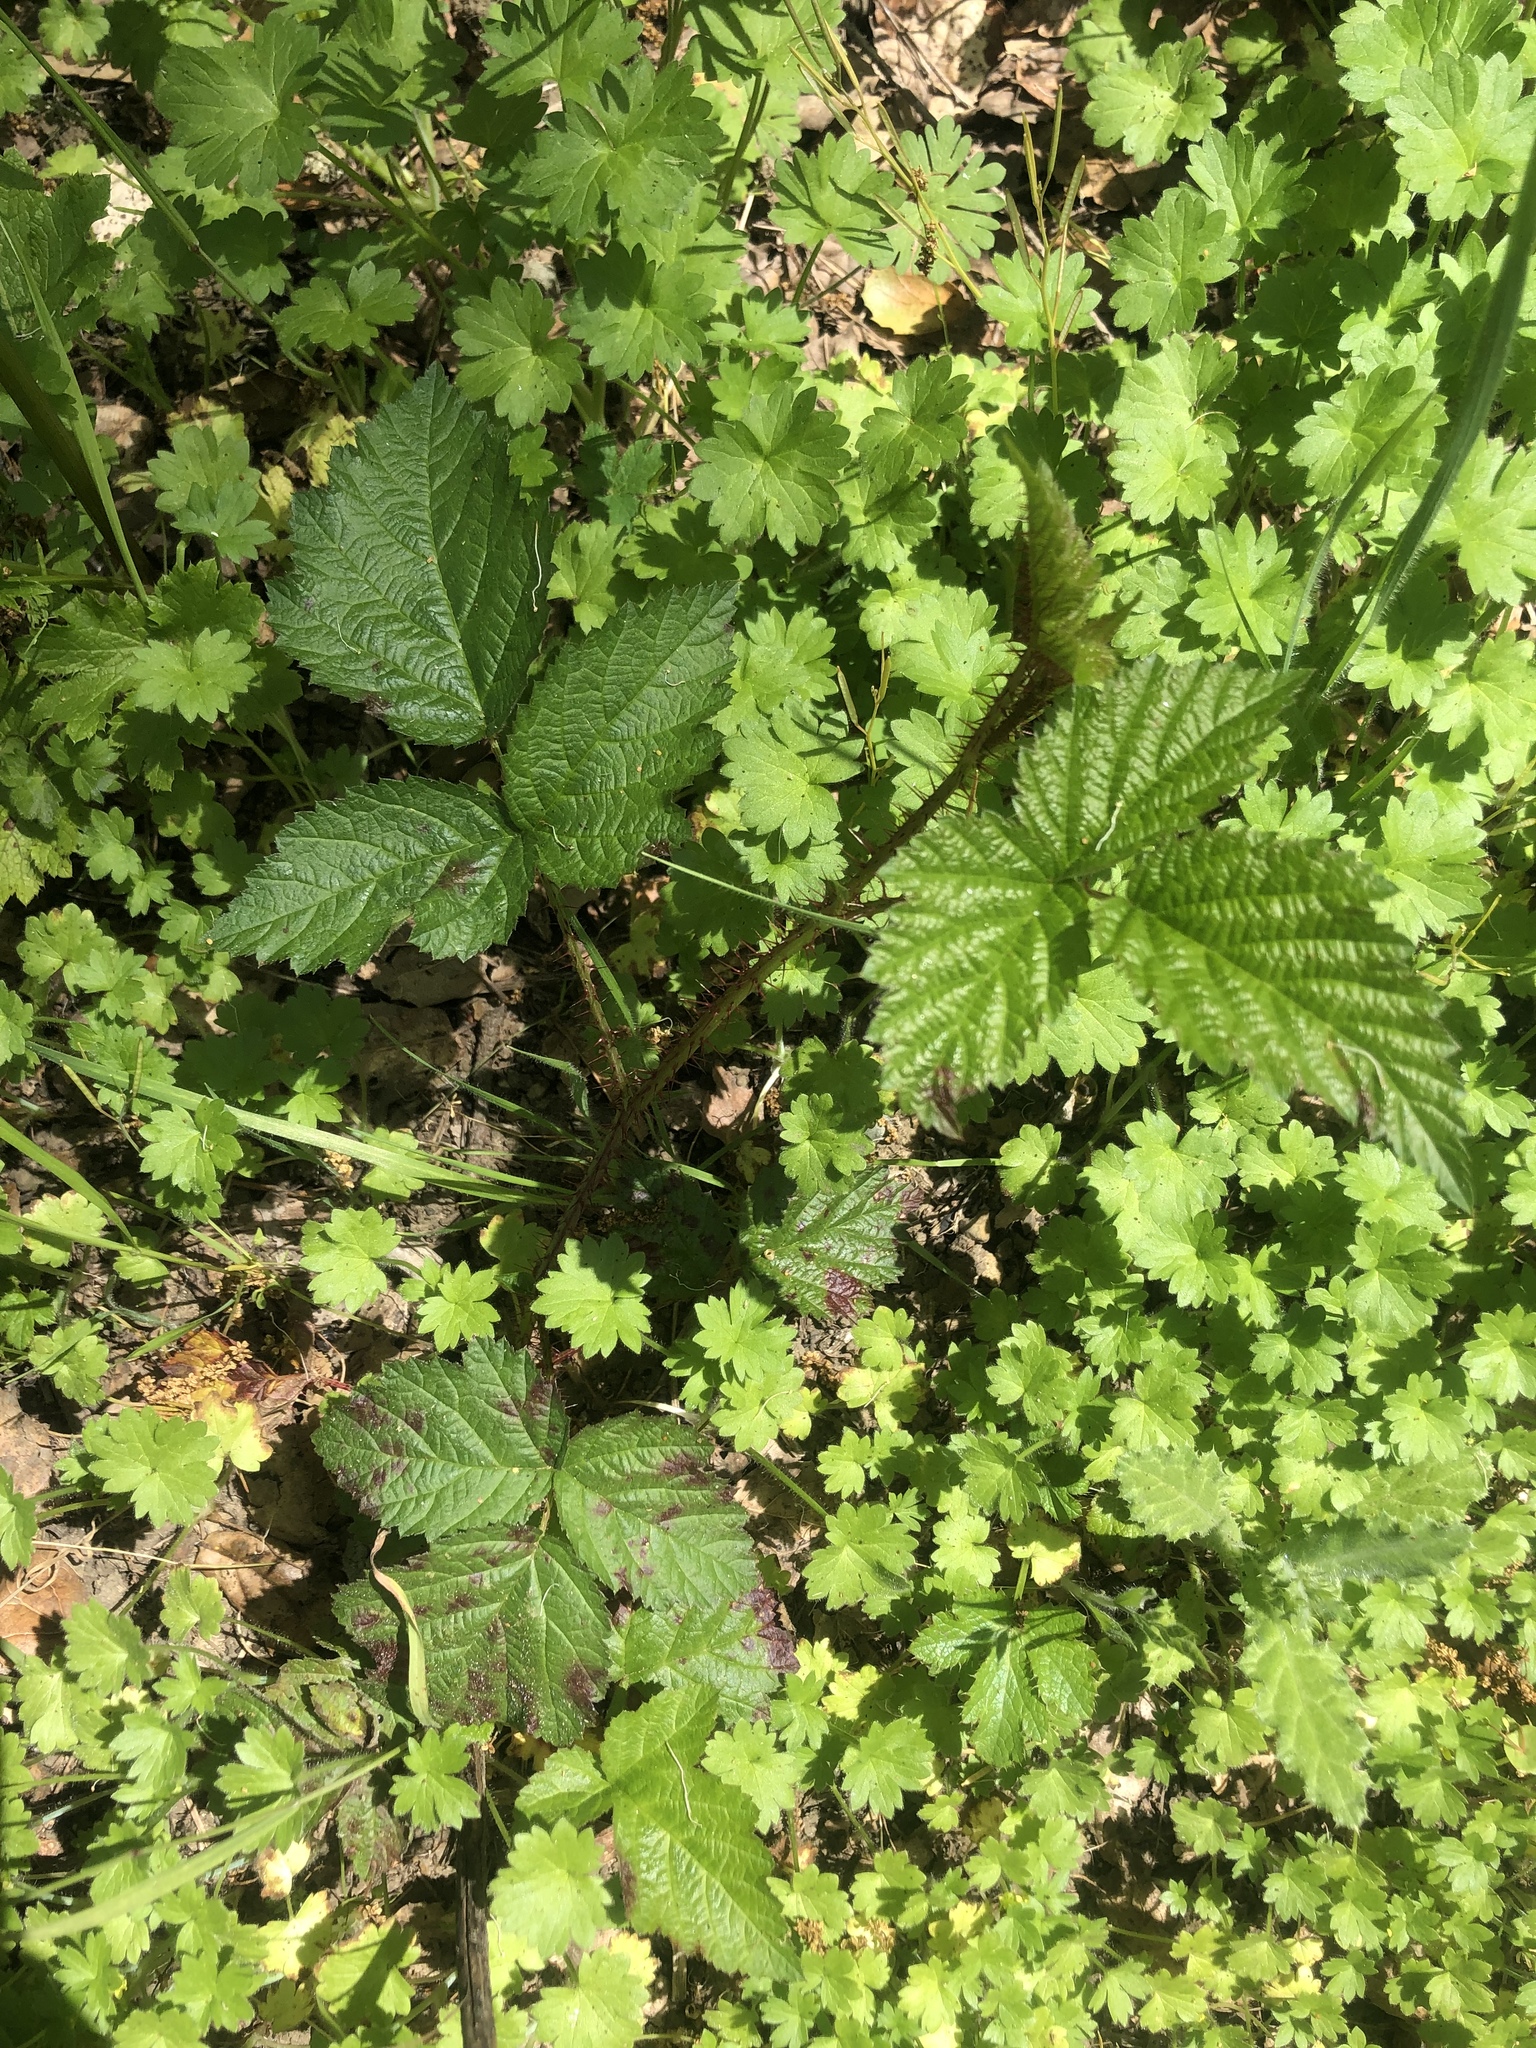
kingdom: Plantae
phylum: Tracheophyta
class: Magnoliopsida
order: Rosales
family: Rosaceae
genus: Rubus
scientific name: Rubus ursinus
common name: Pacific blackberry
